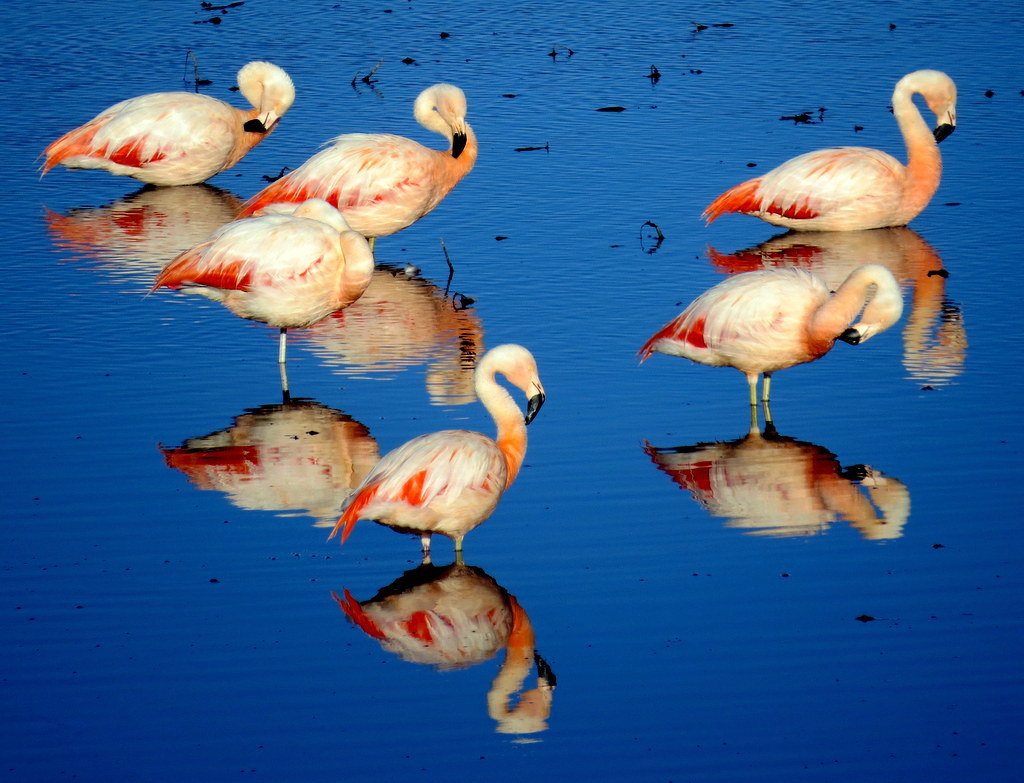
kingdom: Animalia
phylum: Chordata
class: Aves
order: Phoenicopteriformes
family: Phoenicopteridae
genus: Phoenicopterus
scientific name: Phoenicopterus chilensis
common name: Chilean flamingo
